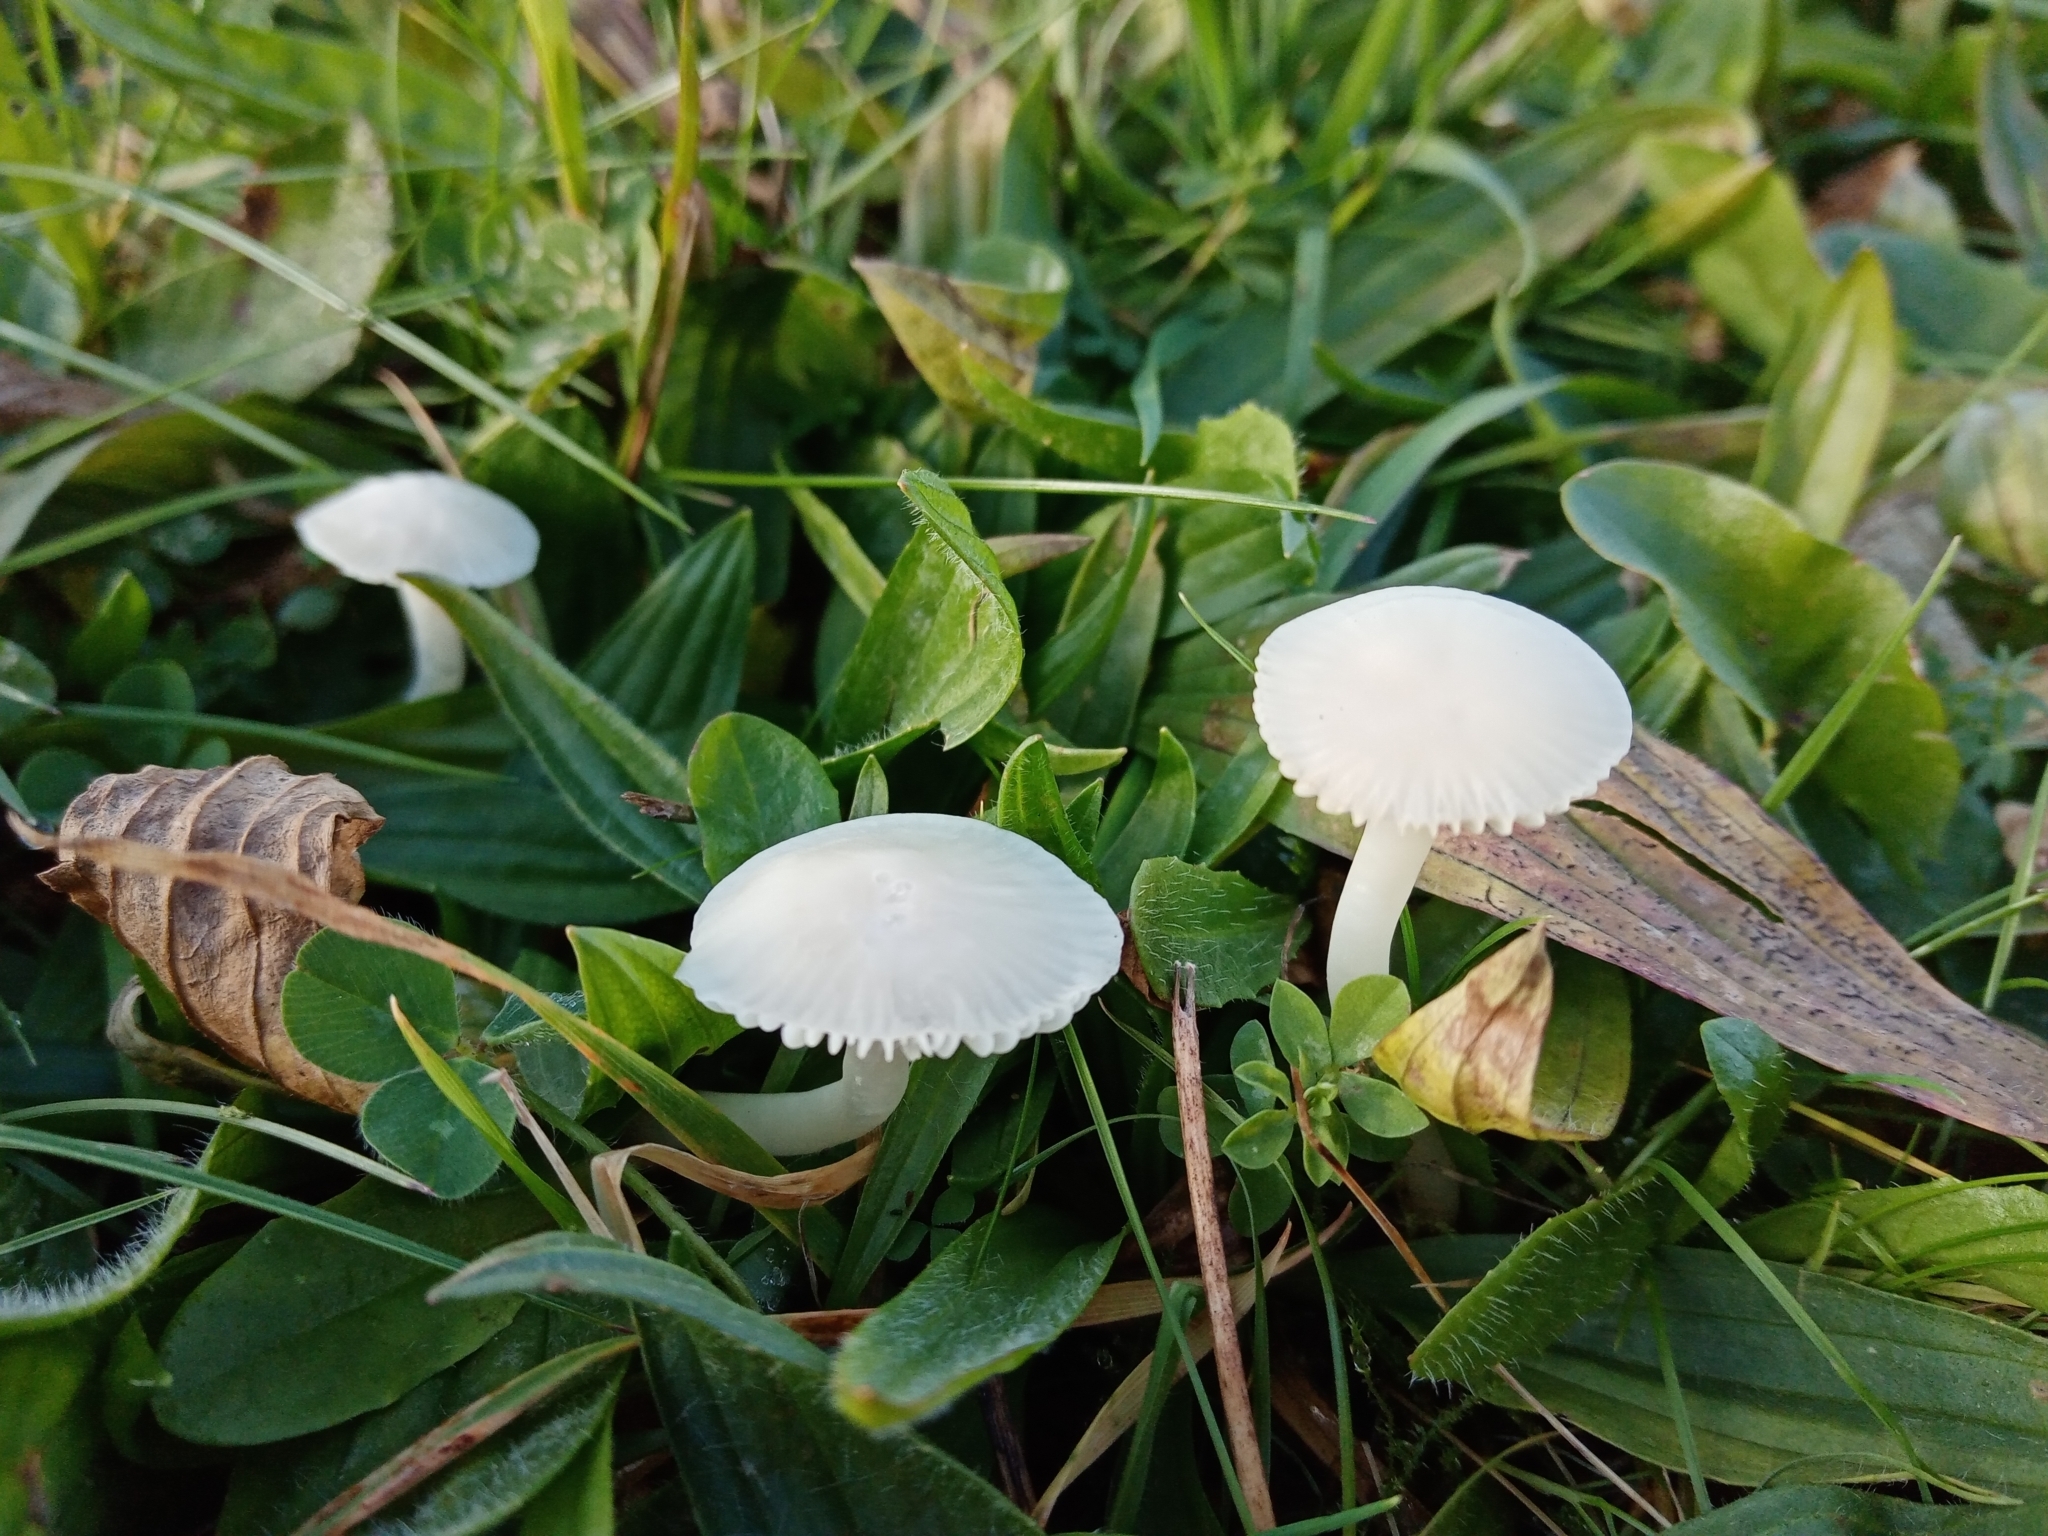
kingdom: Fungi
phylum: Basidiomycota
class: Agaricomycetes
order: Agaricales
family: Hygrophoraceae
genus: Cuphophyllus
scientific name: Cuphophyllus virgineus
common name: Snowy waxcap
